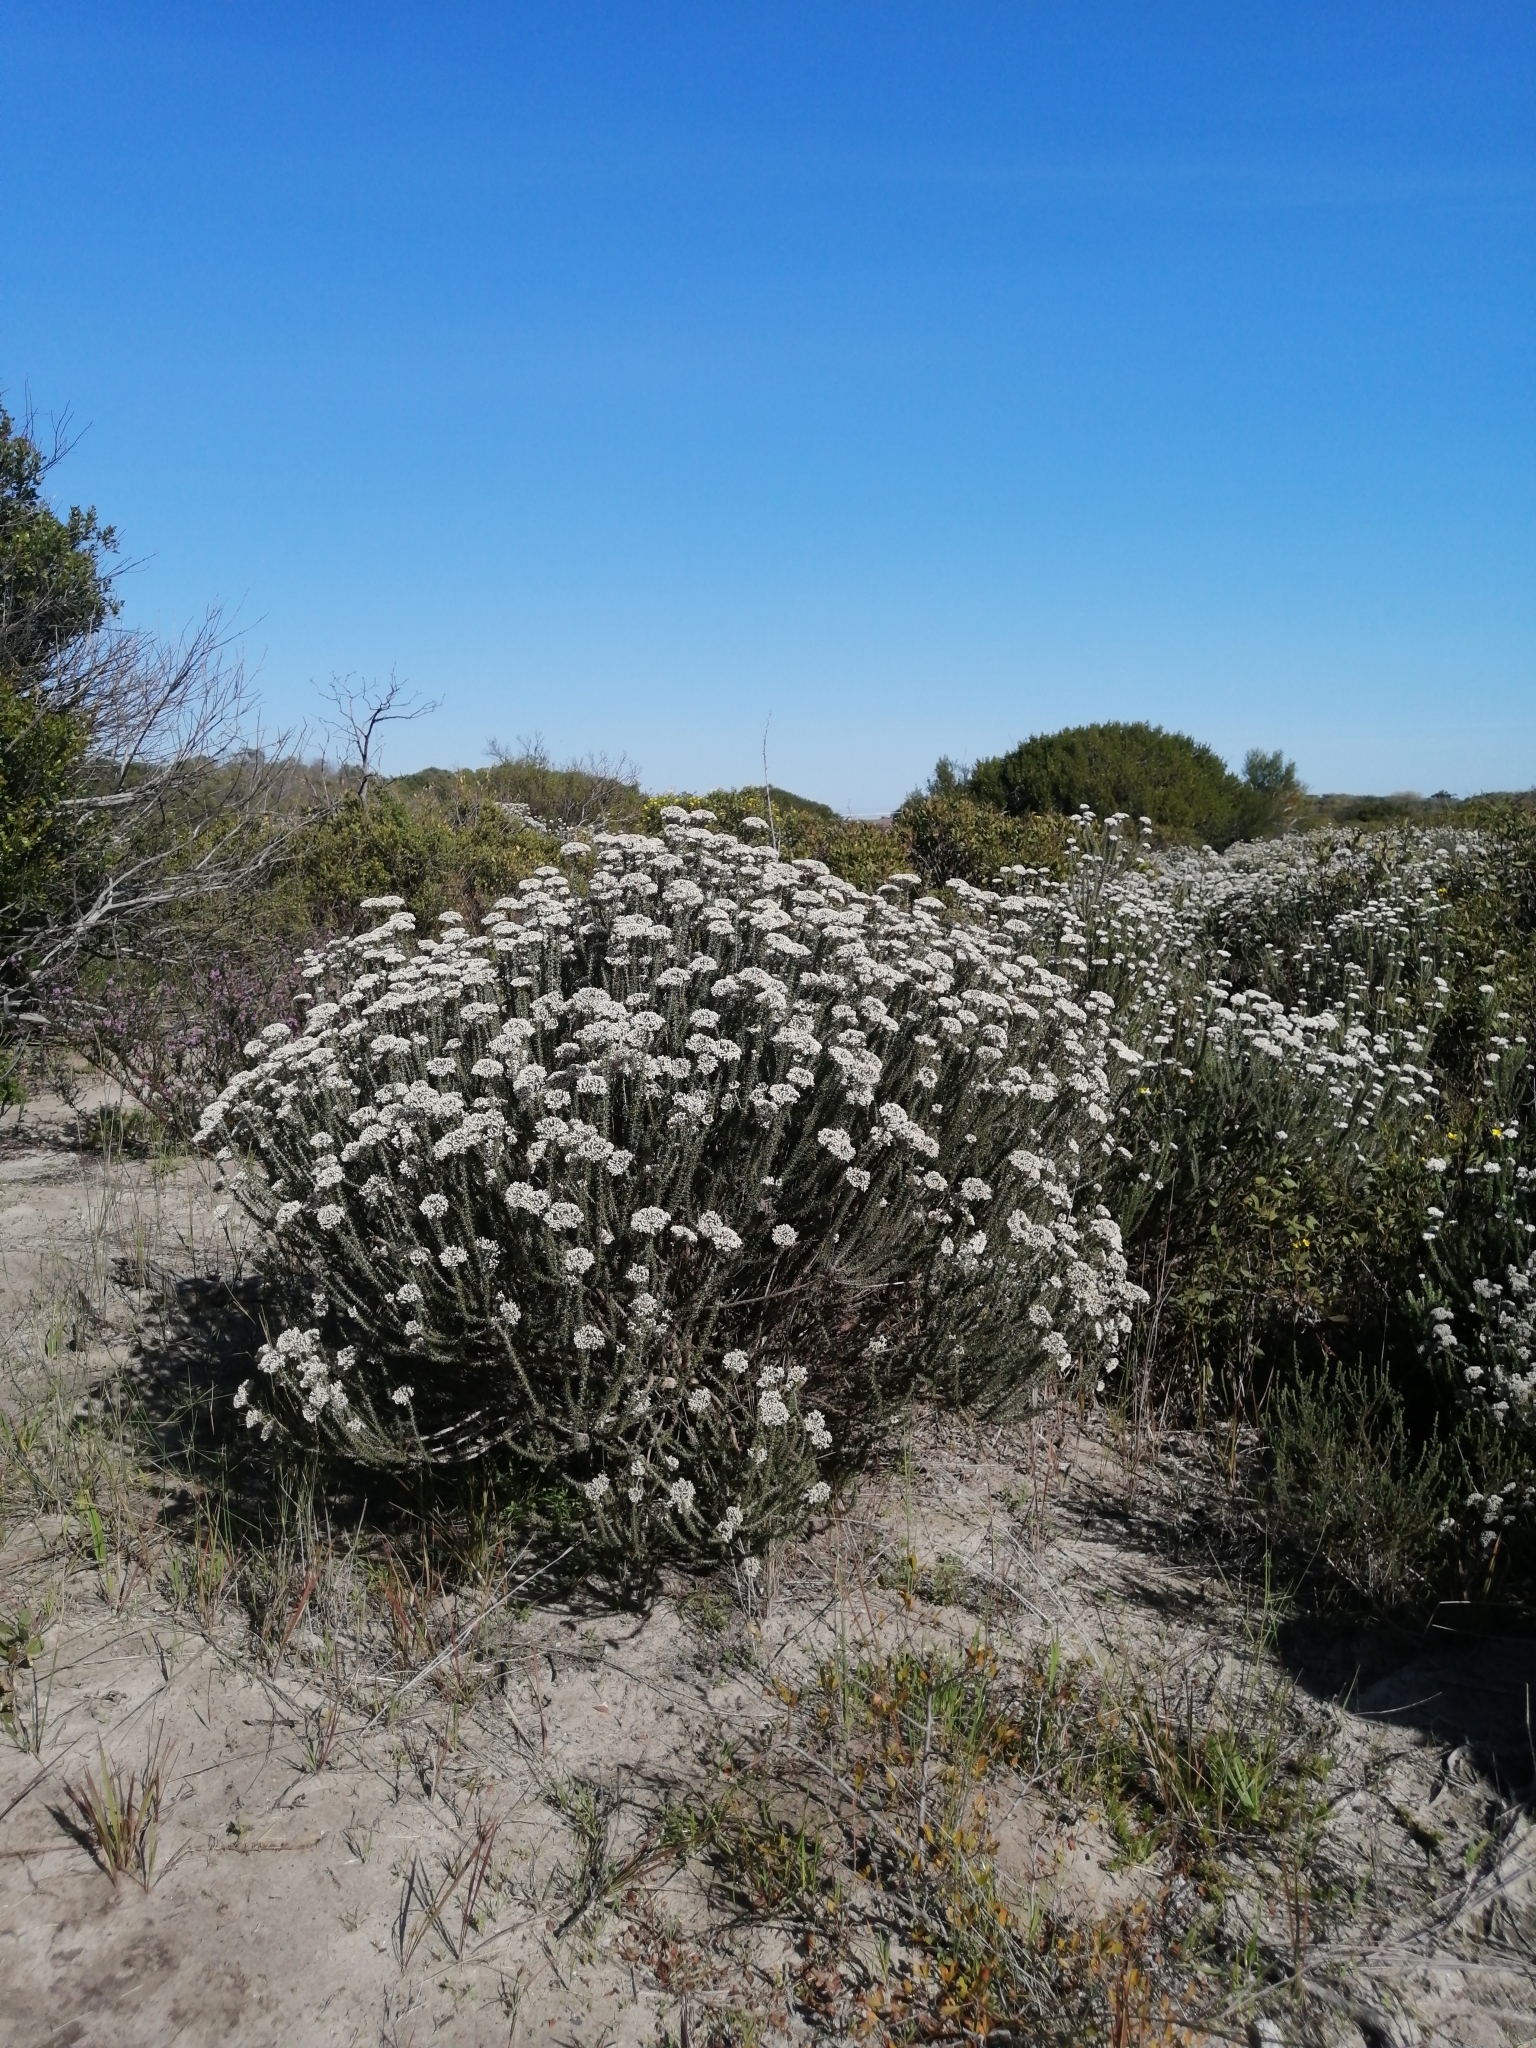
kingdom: Plantae
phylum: Tracheophyta
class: Magnoliopsida
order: Asterales
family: Asteraceae
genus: Metalasia
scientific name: Metalasia muricata
